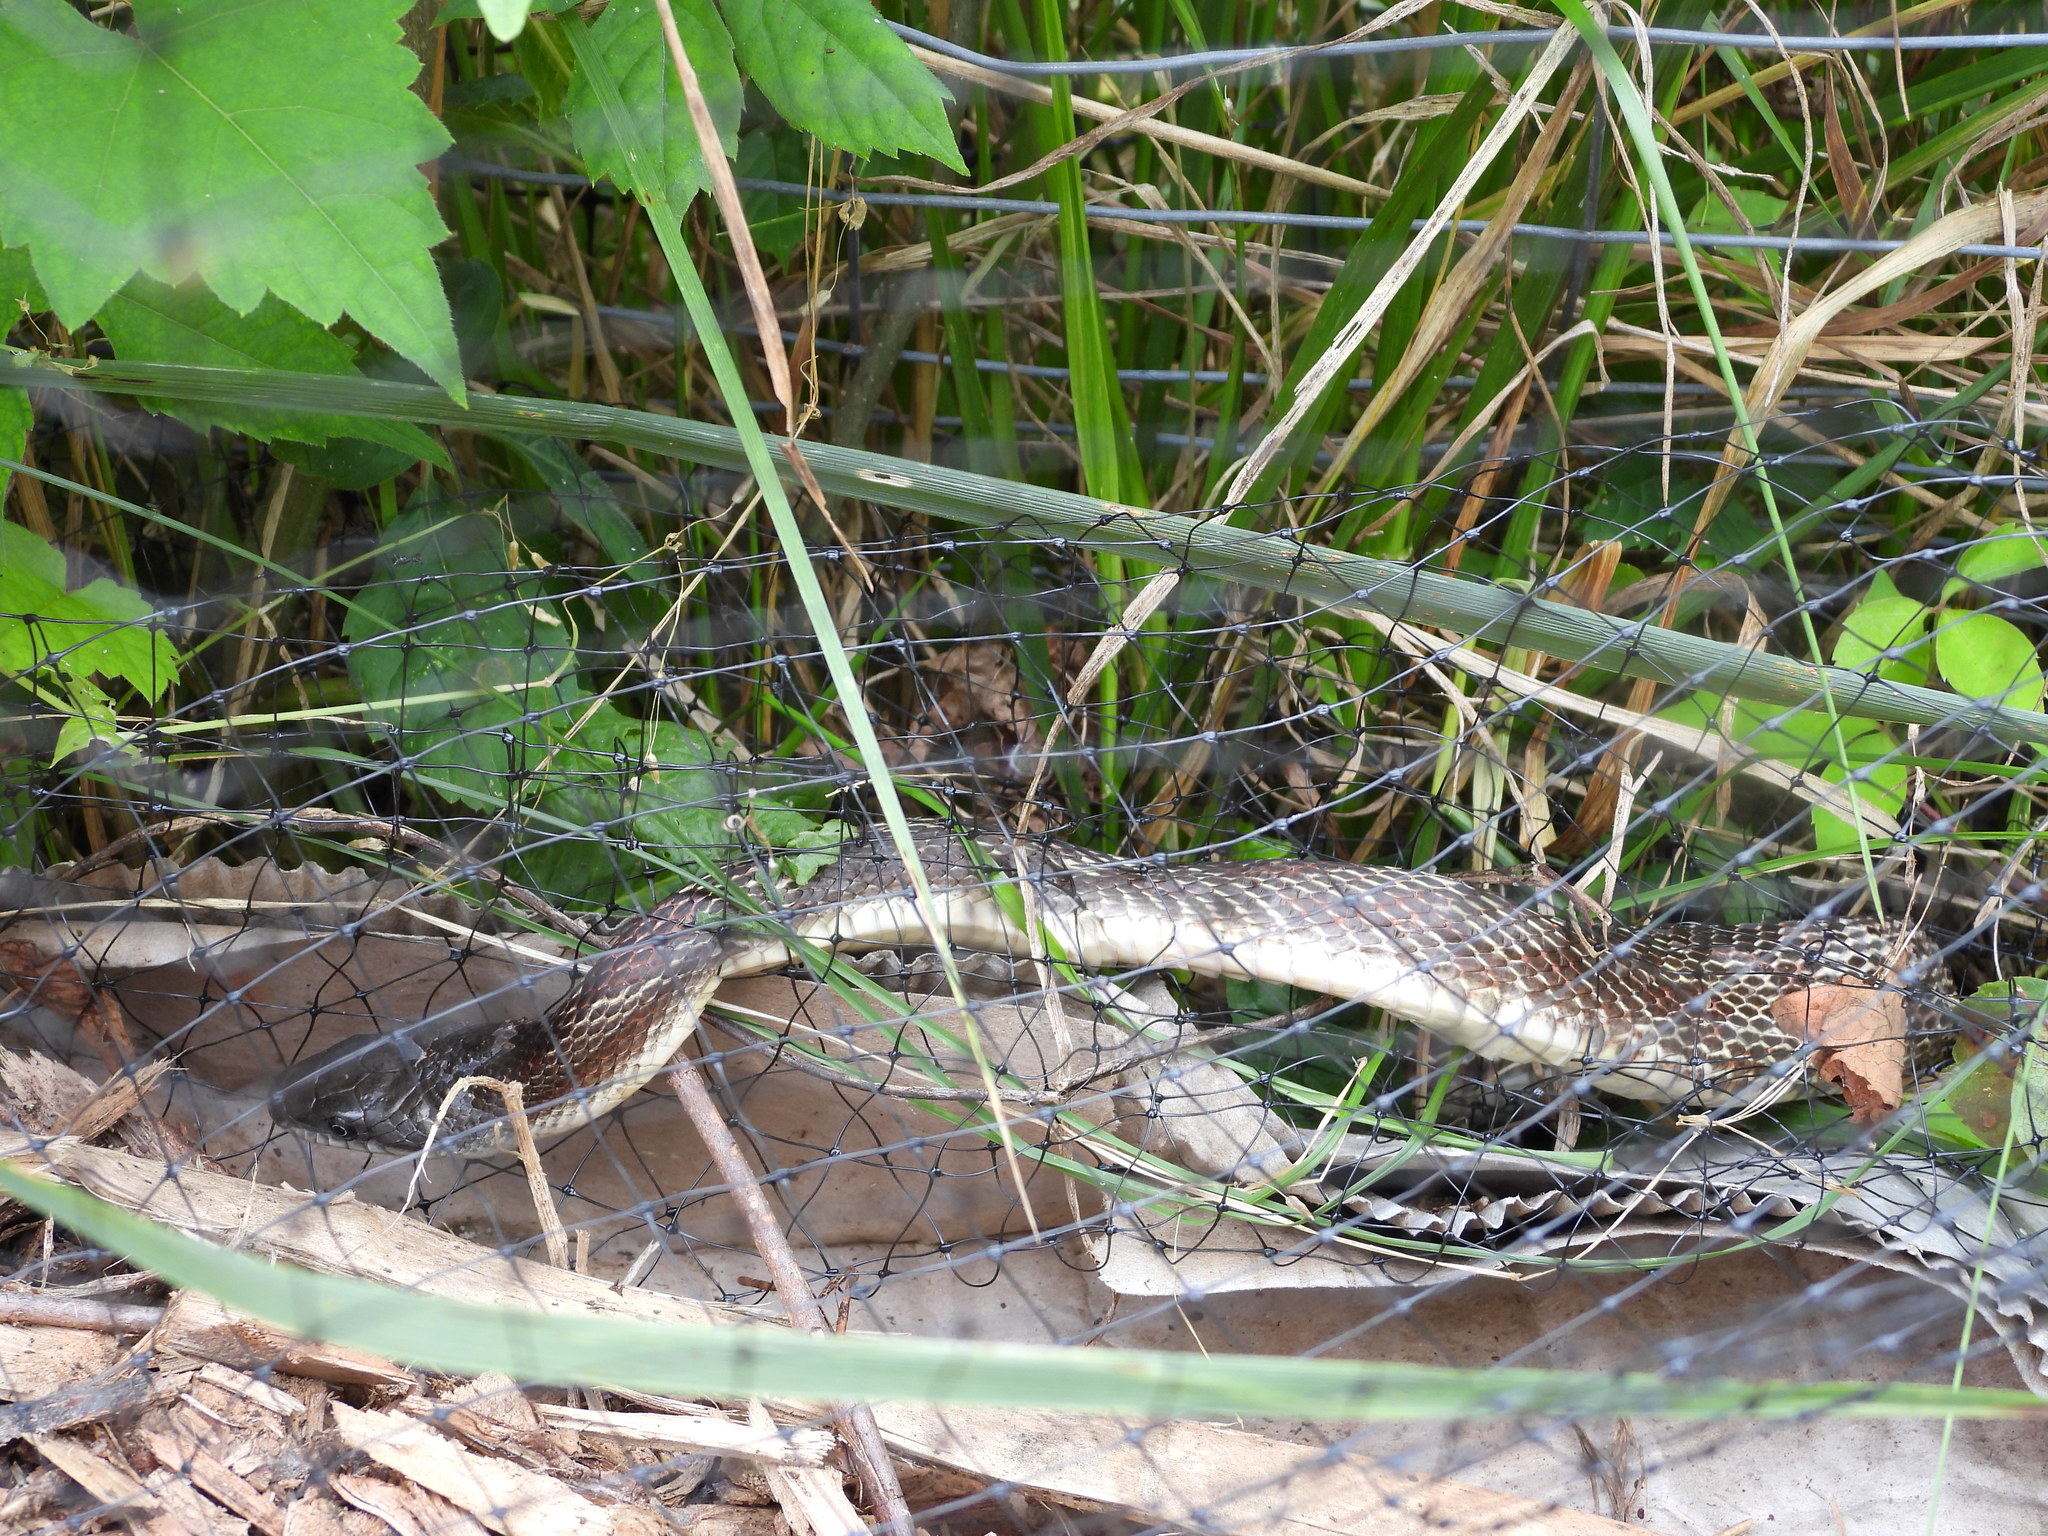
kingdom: Animalia
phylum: Chordata
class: Squamata
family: Colubridae
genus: Pantherophis
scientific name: Pantherophis spiloides
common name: Gray rat snake
